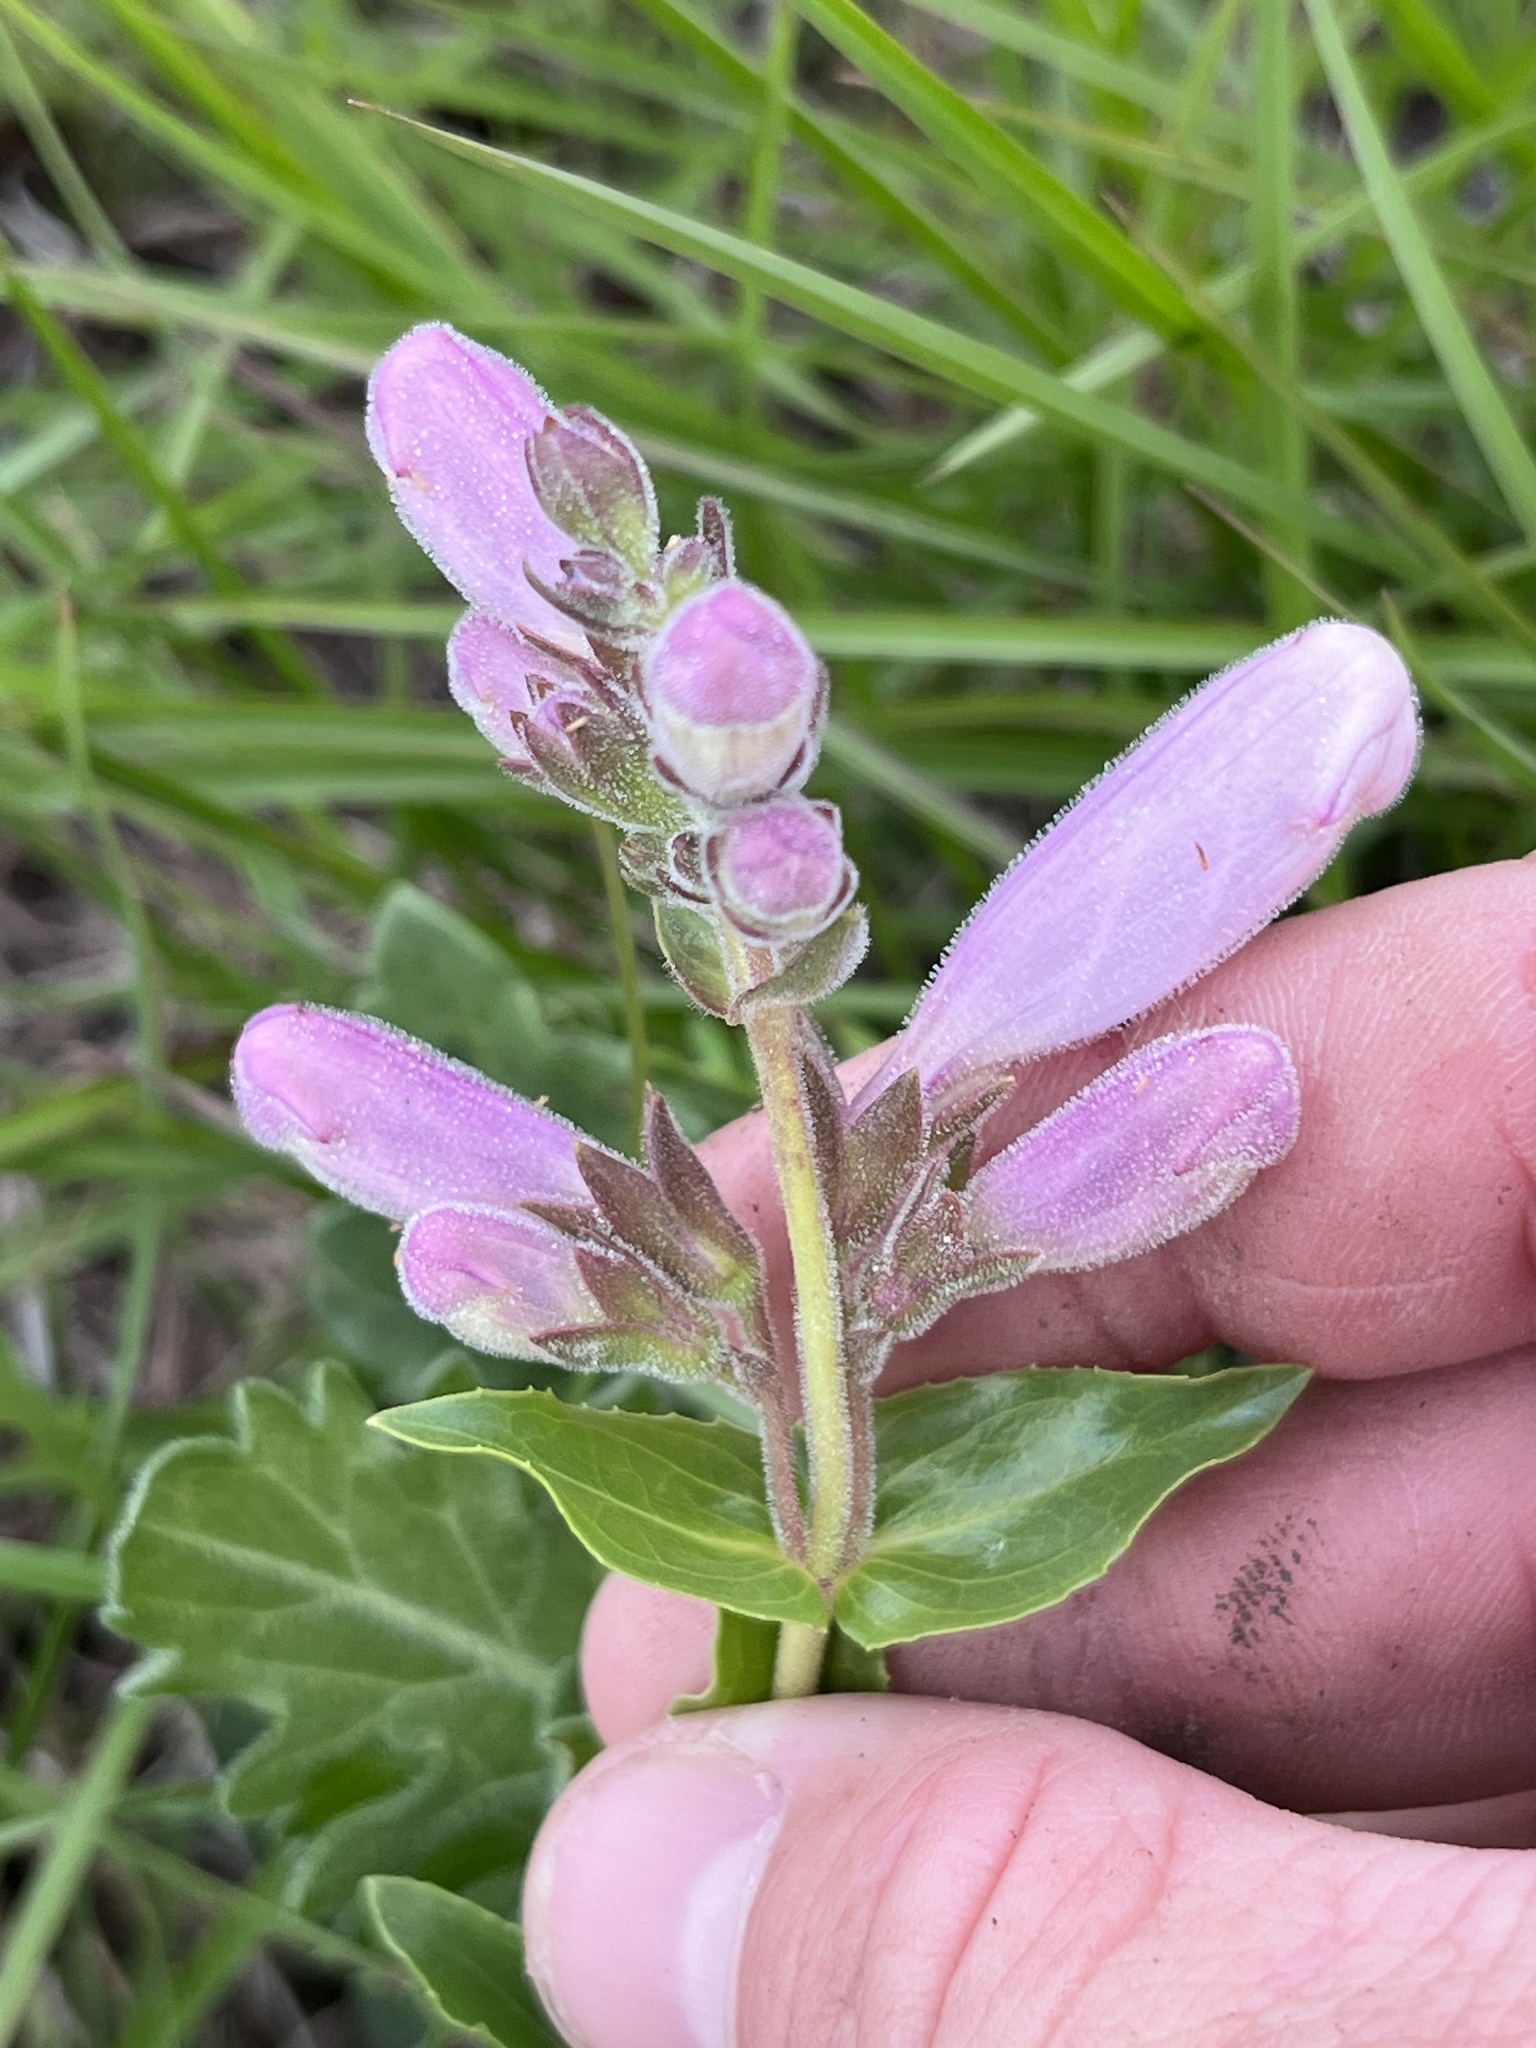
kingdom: Plantae
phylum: Tracheophyta
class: Magnoliopsida
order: Lamiales
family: Plantaginaceae
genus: Penstemon
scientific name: Penstemon cobaea
